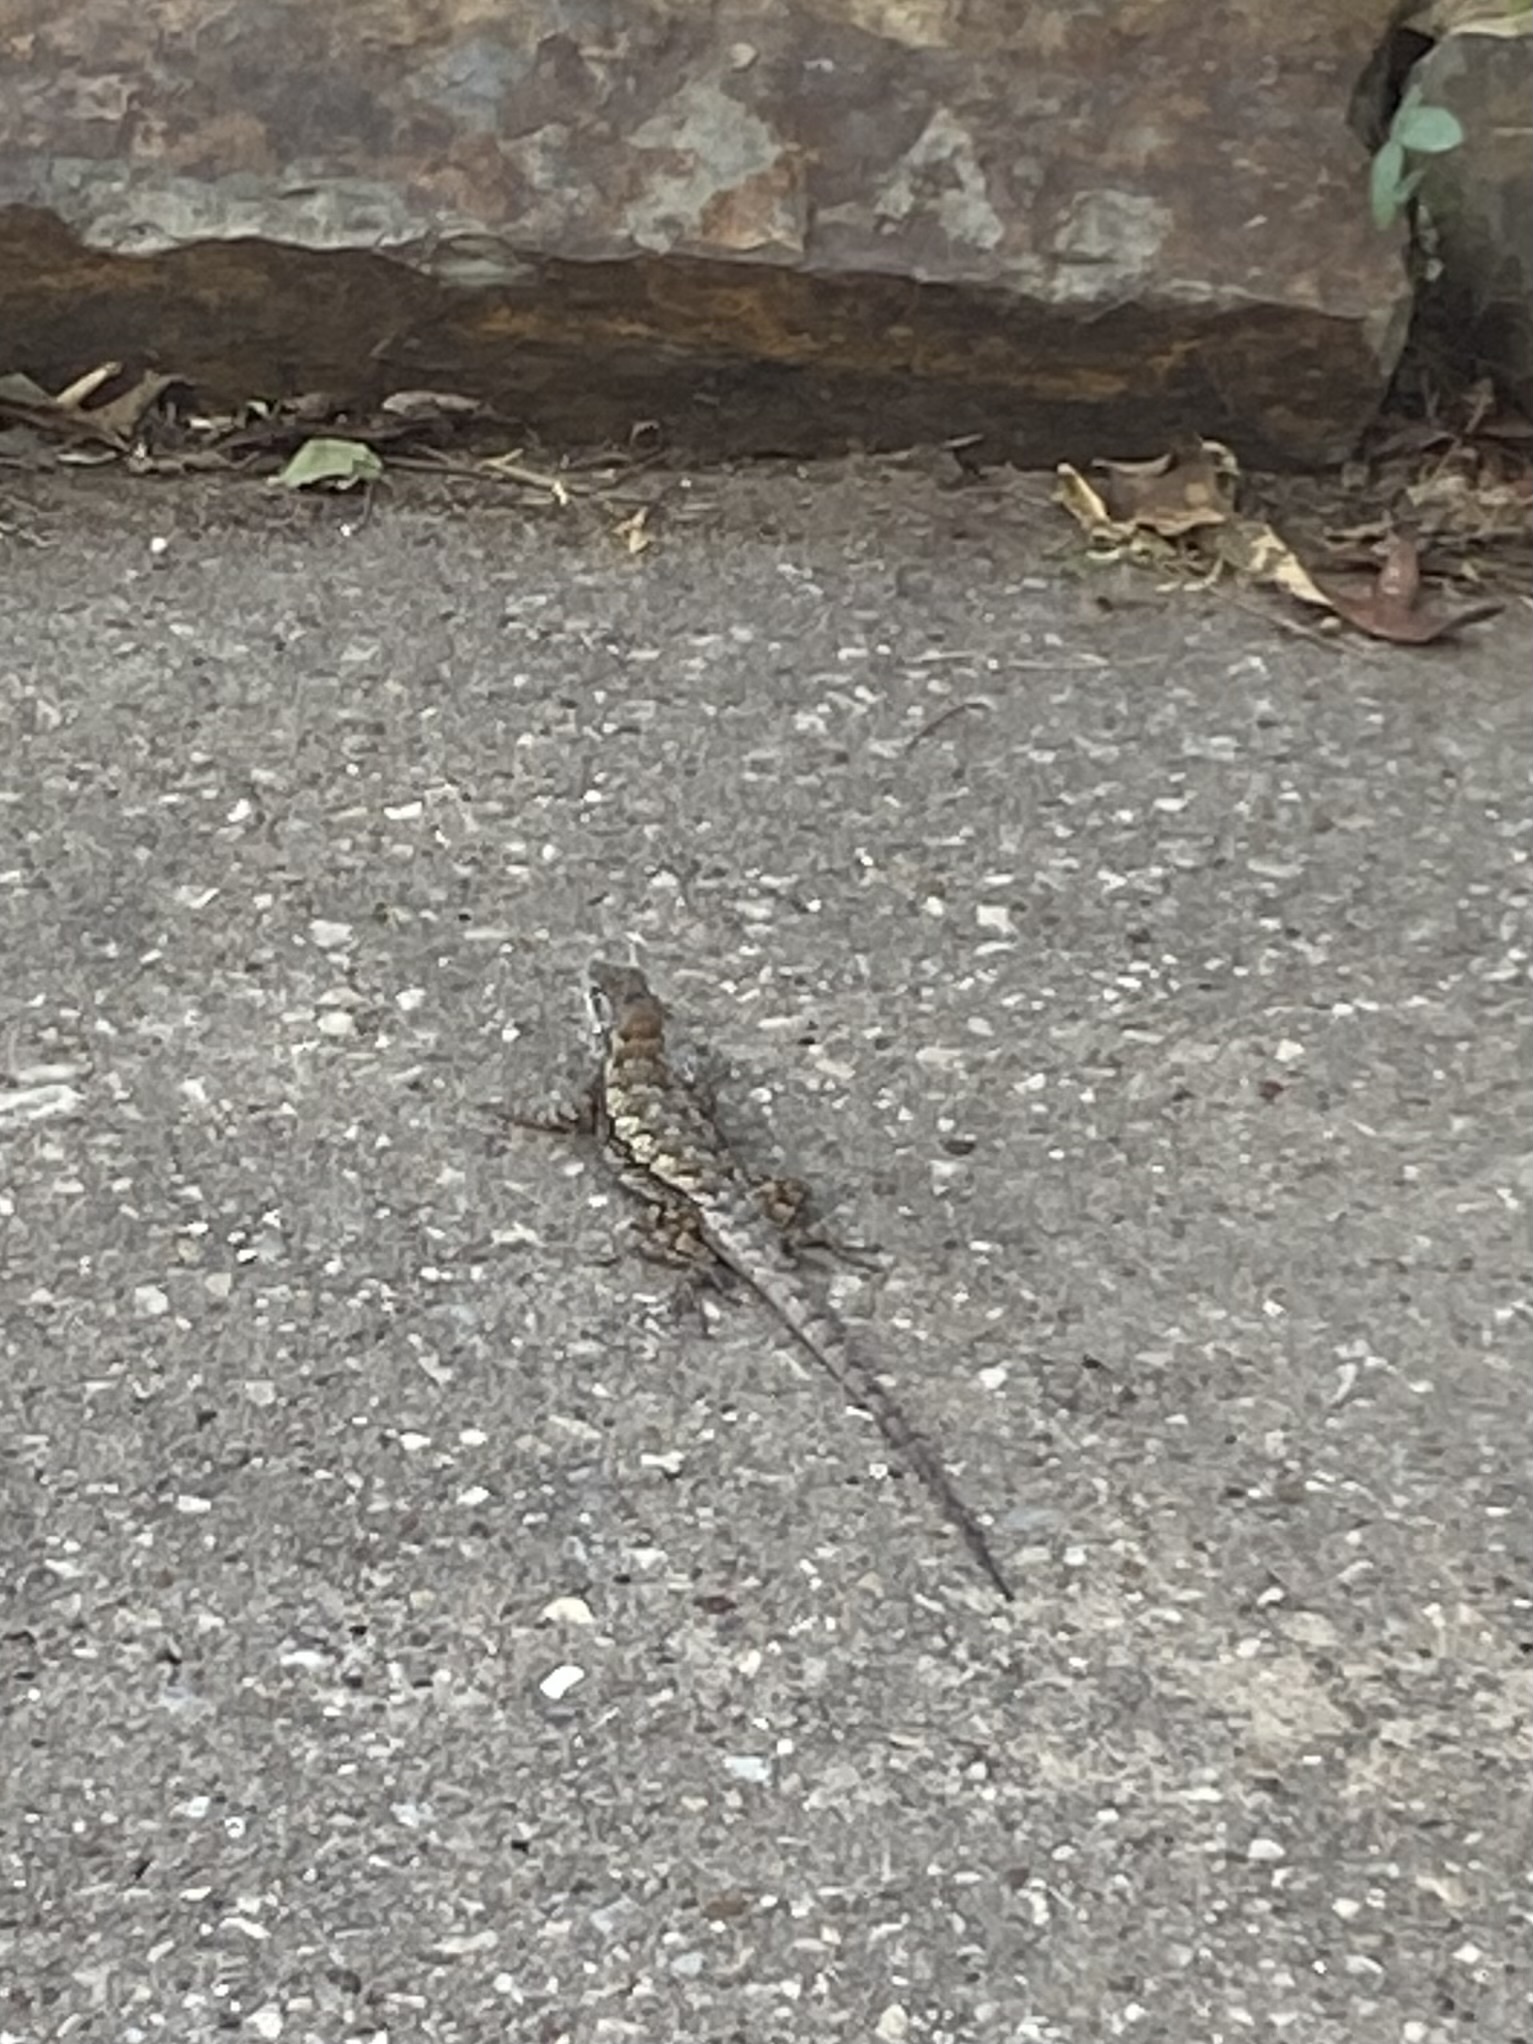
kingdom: Animalia
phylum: Chordata
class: Squamata
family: Phrynosomatidae
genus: Sceloporus
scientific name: Sceloporus olivaceus
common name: Texas spiny lizard
